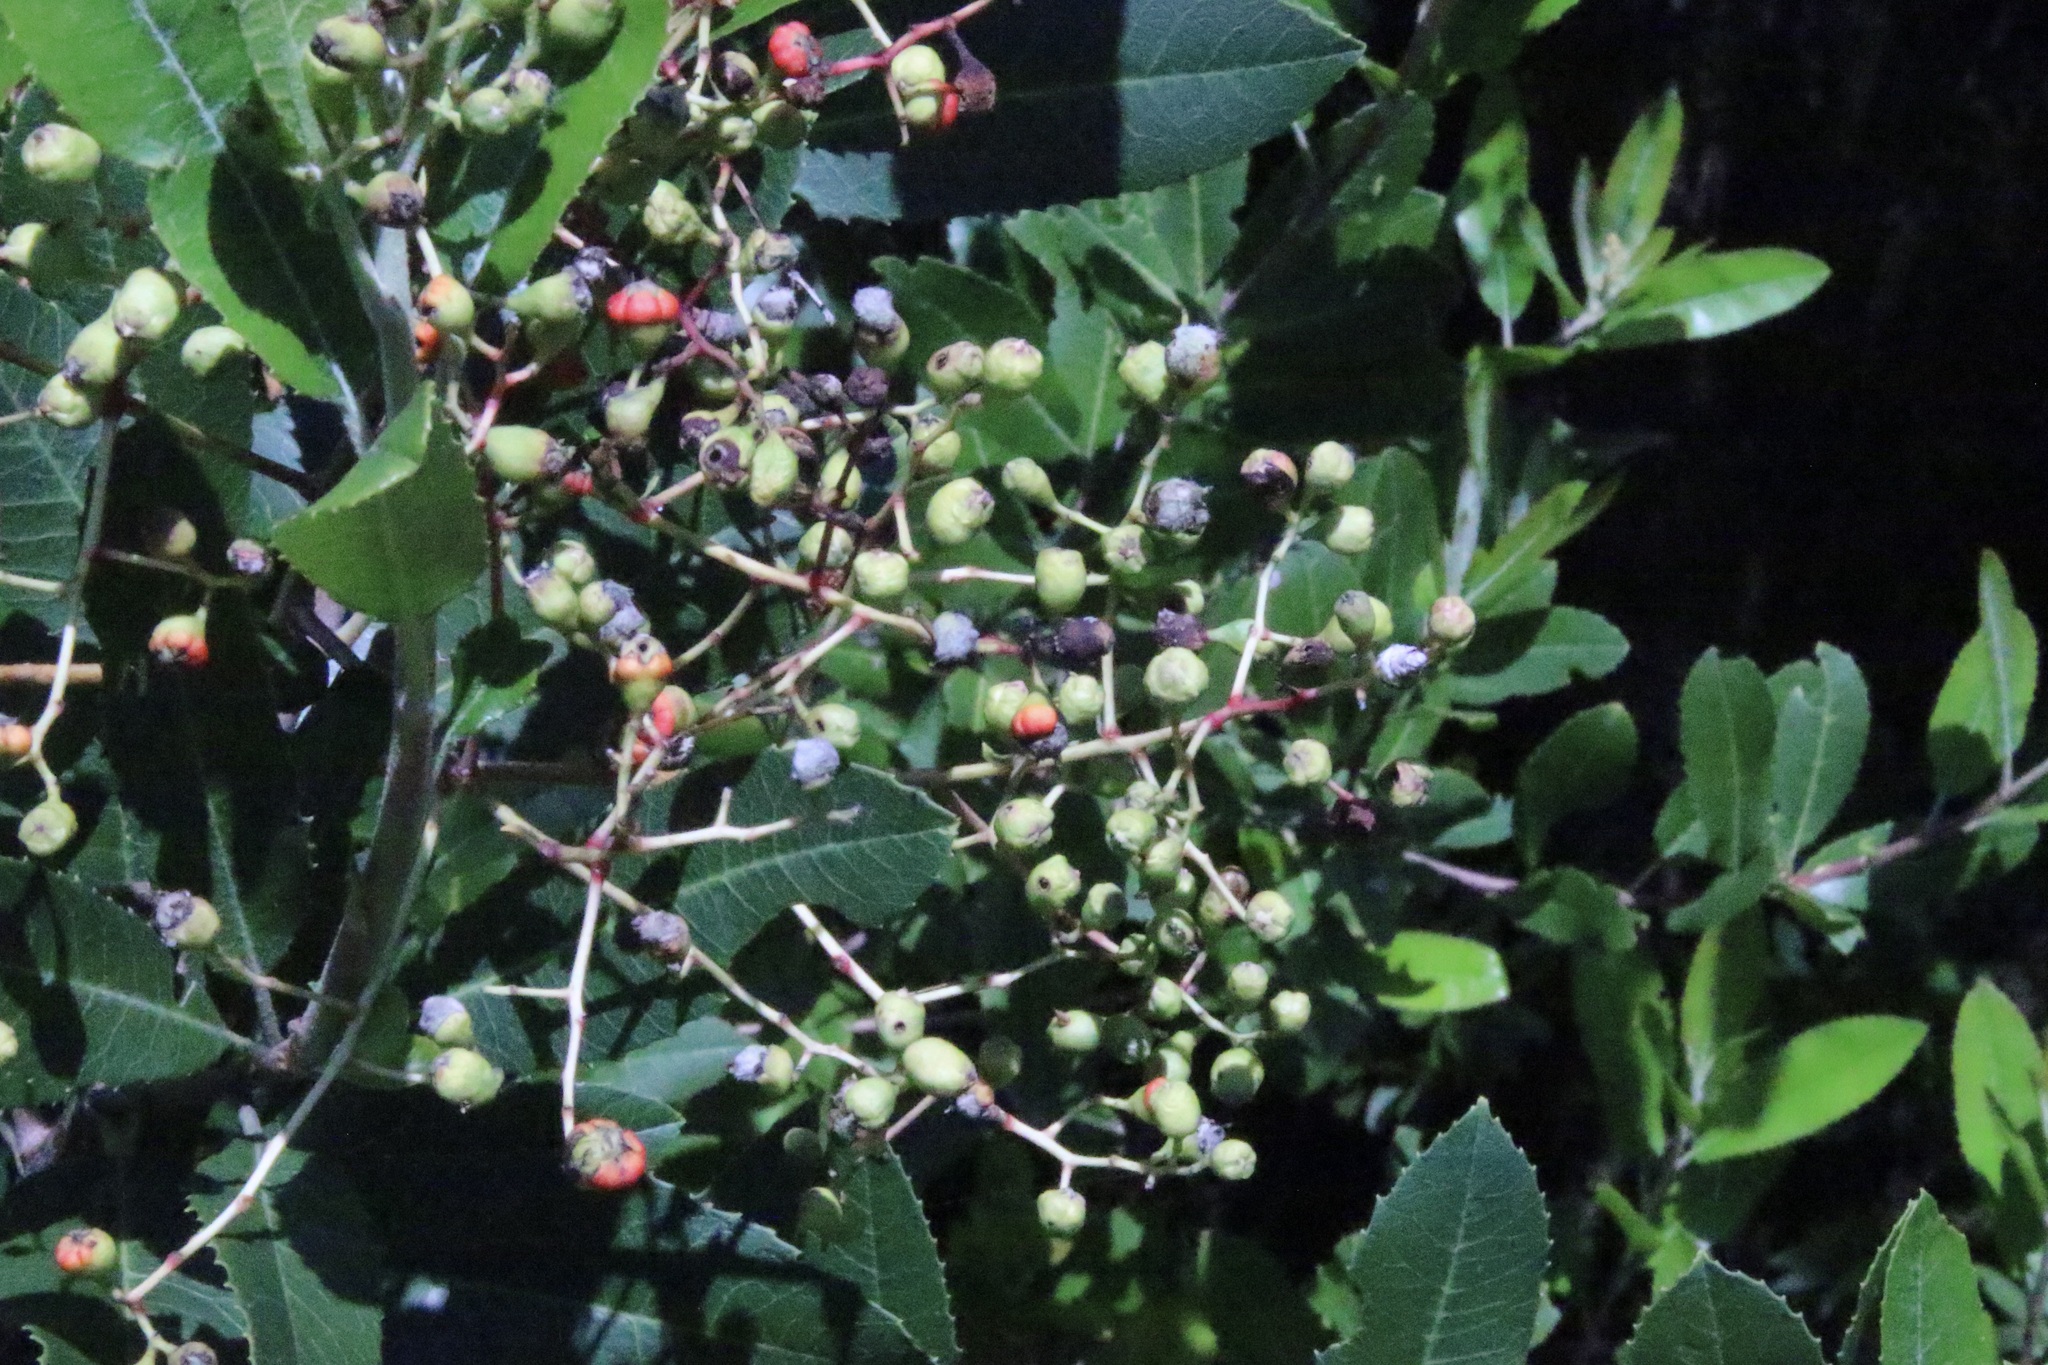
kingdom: Animalia
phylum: Arthropoda
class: Insecta
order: Diptera
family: Cecidomyiidae
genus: Asphondylia
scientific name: Asphondylia photiniae
